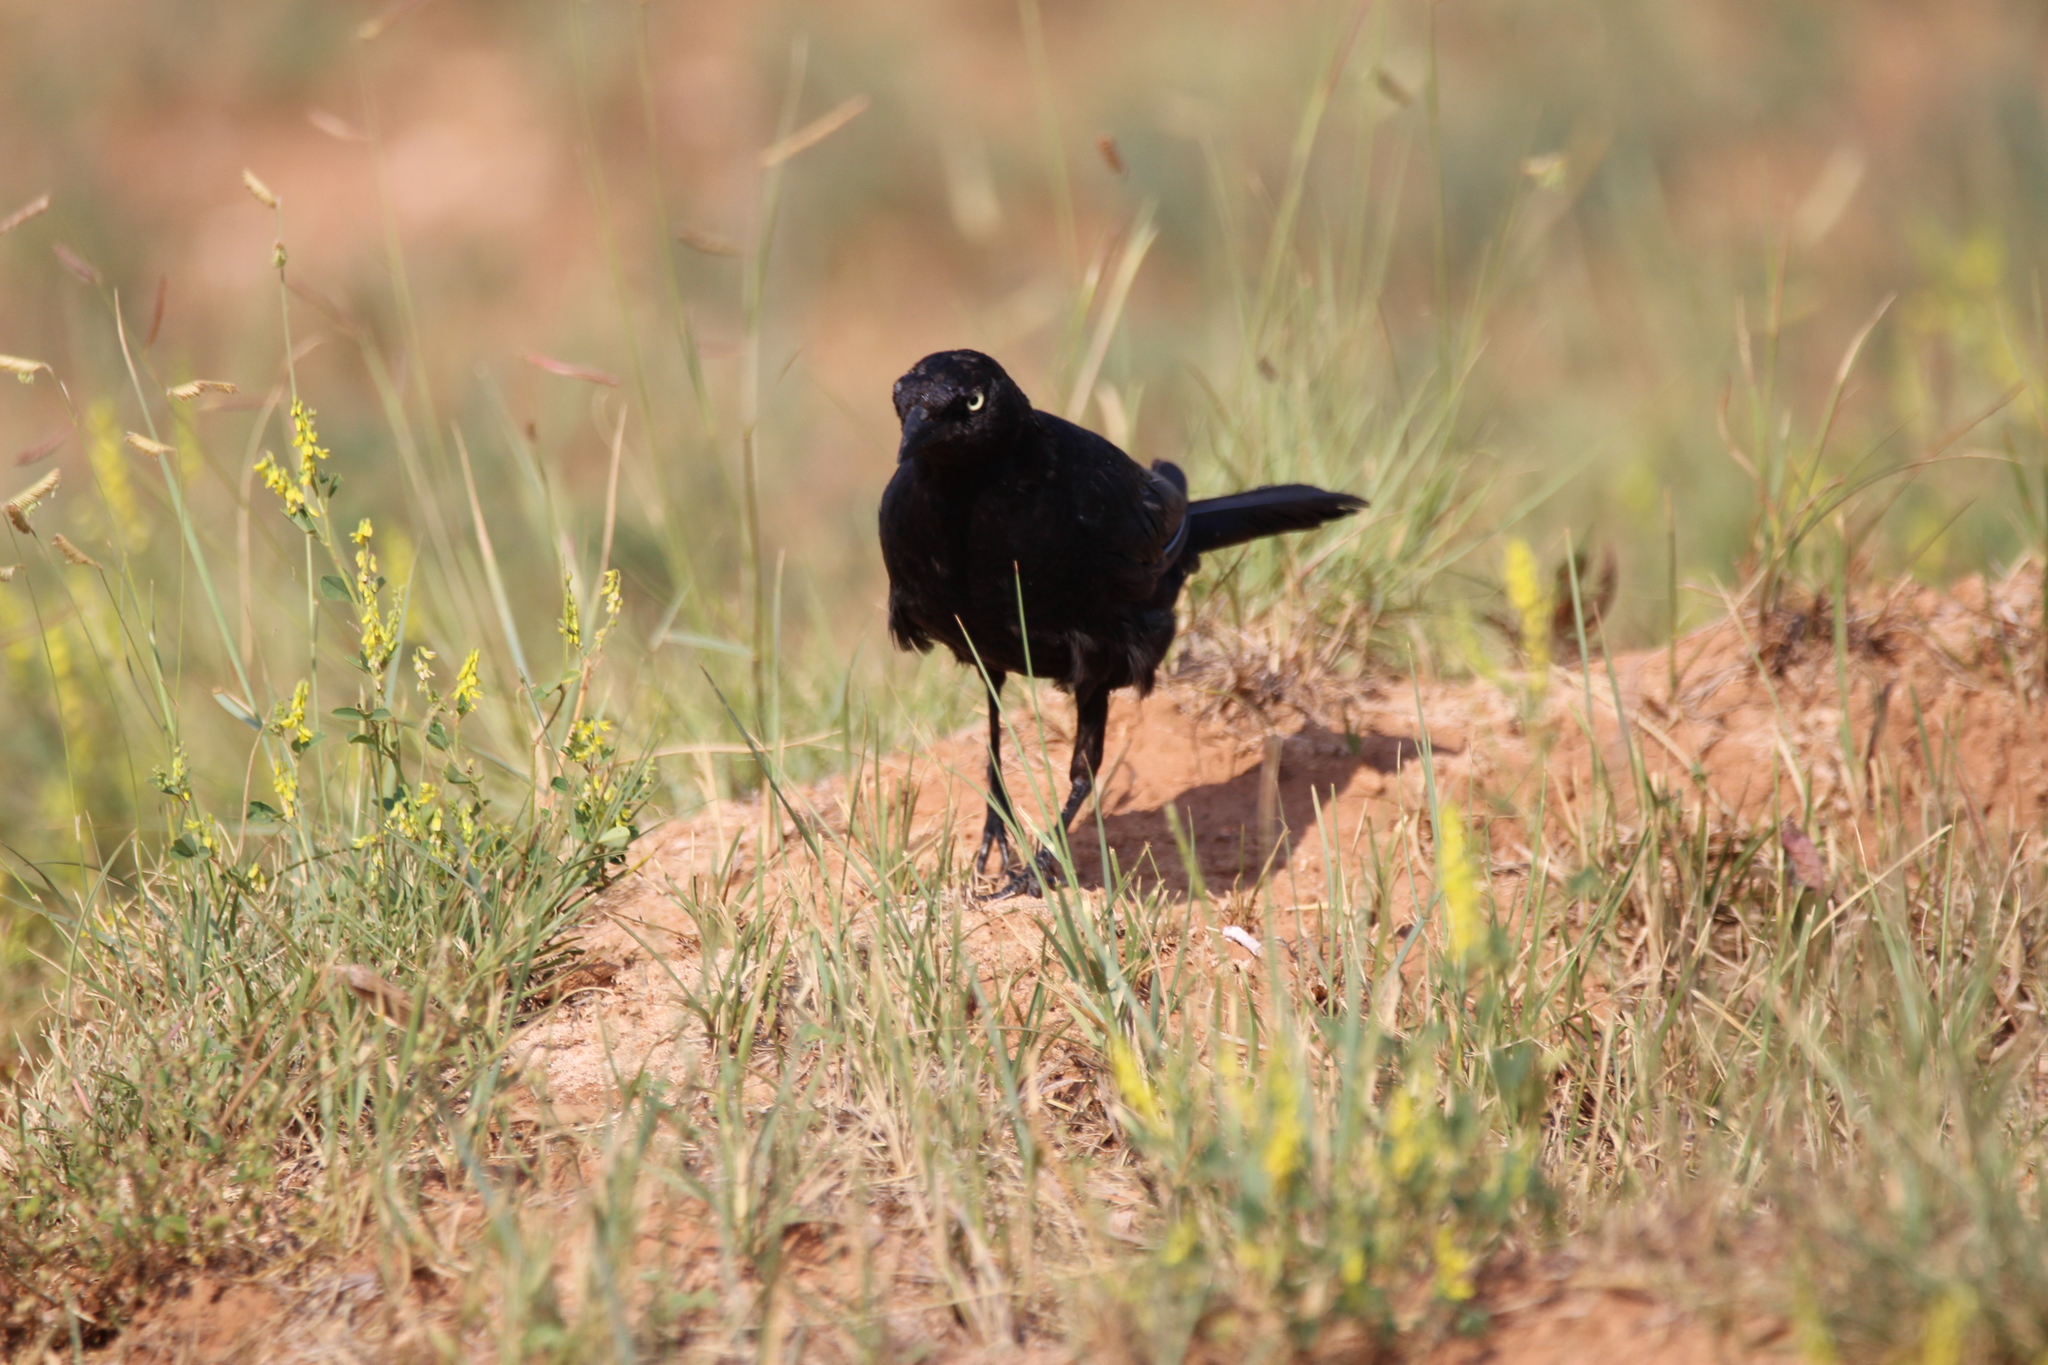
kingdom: Animalia
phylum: Chordata
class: Aves
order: Passeriformes
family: Icteridae
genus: Euphagus
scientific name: Euphagus cyanocephalus
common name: Brewer's blackbird
